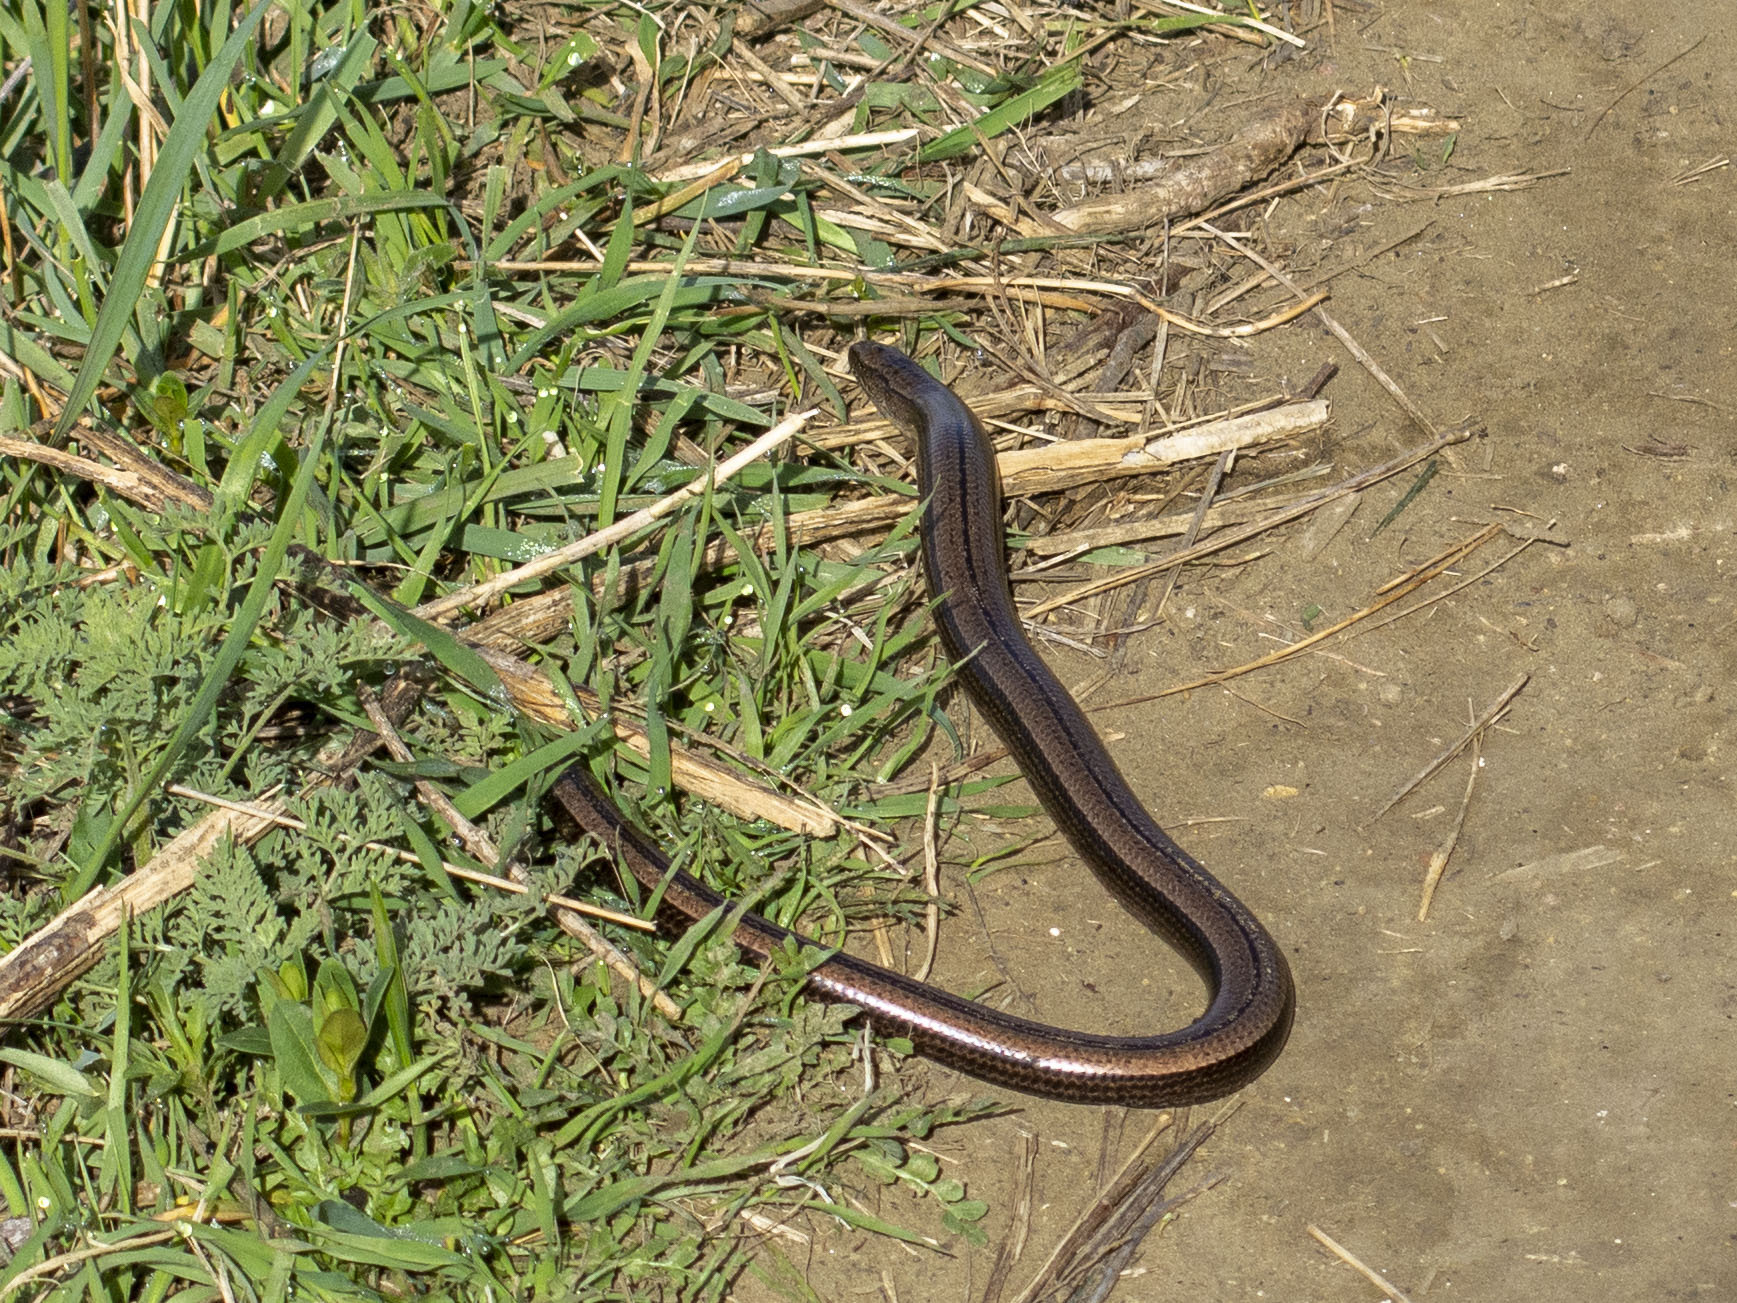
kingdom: Animalia
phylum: Chordata
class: Squamata
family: Anguidae
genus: Anguis
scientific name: Anguis colchica
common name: Slow worm
